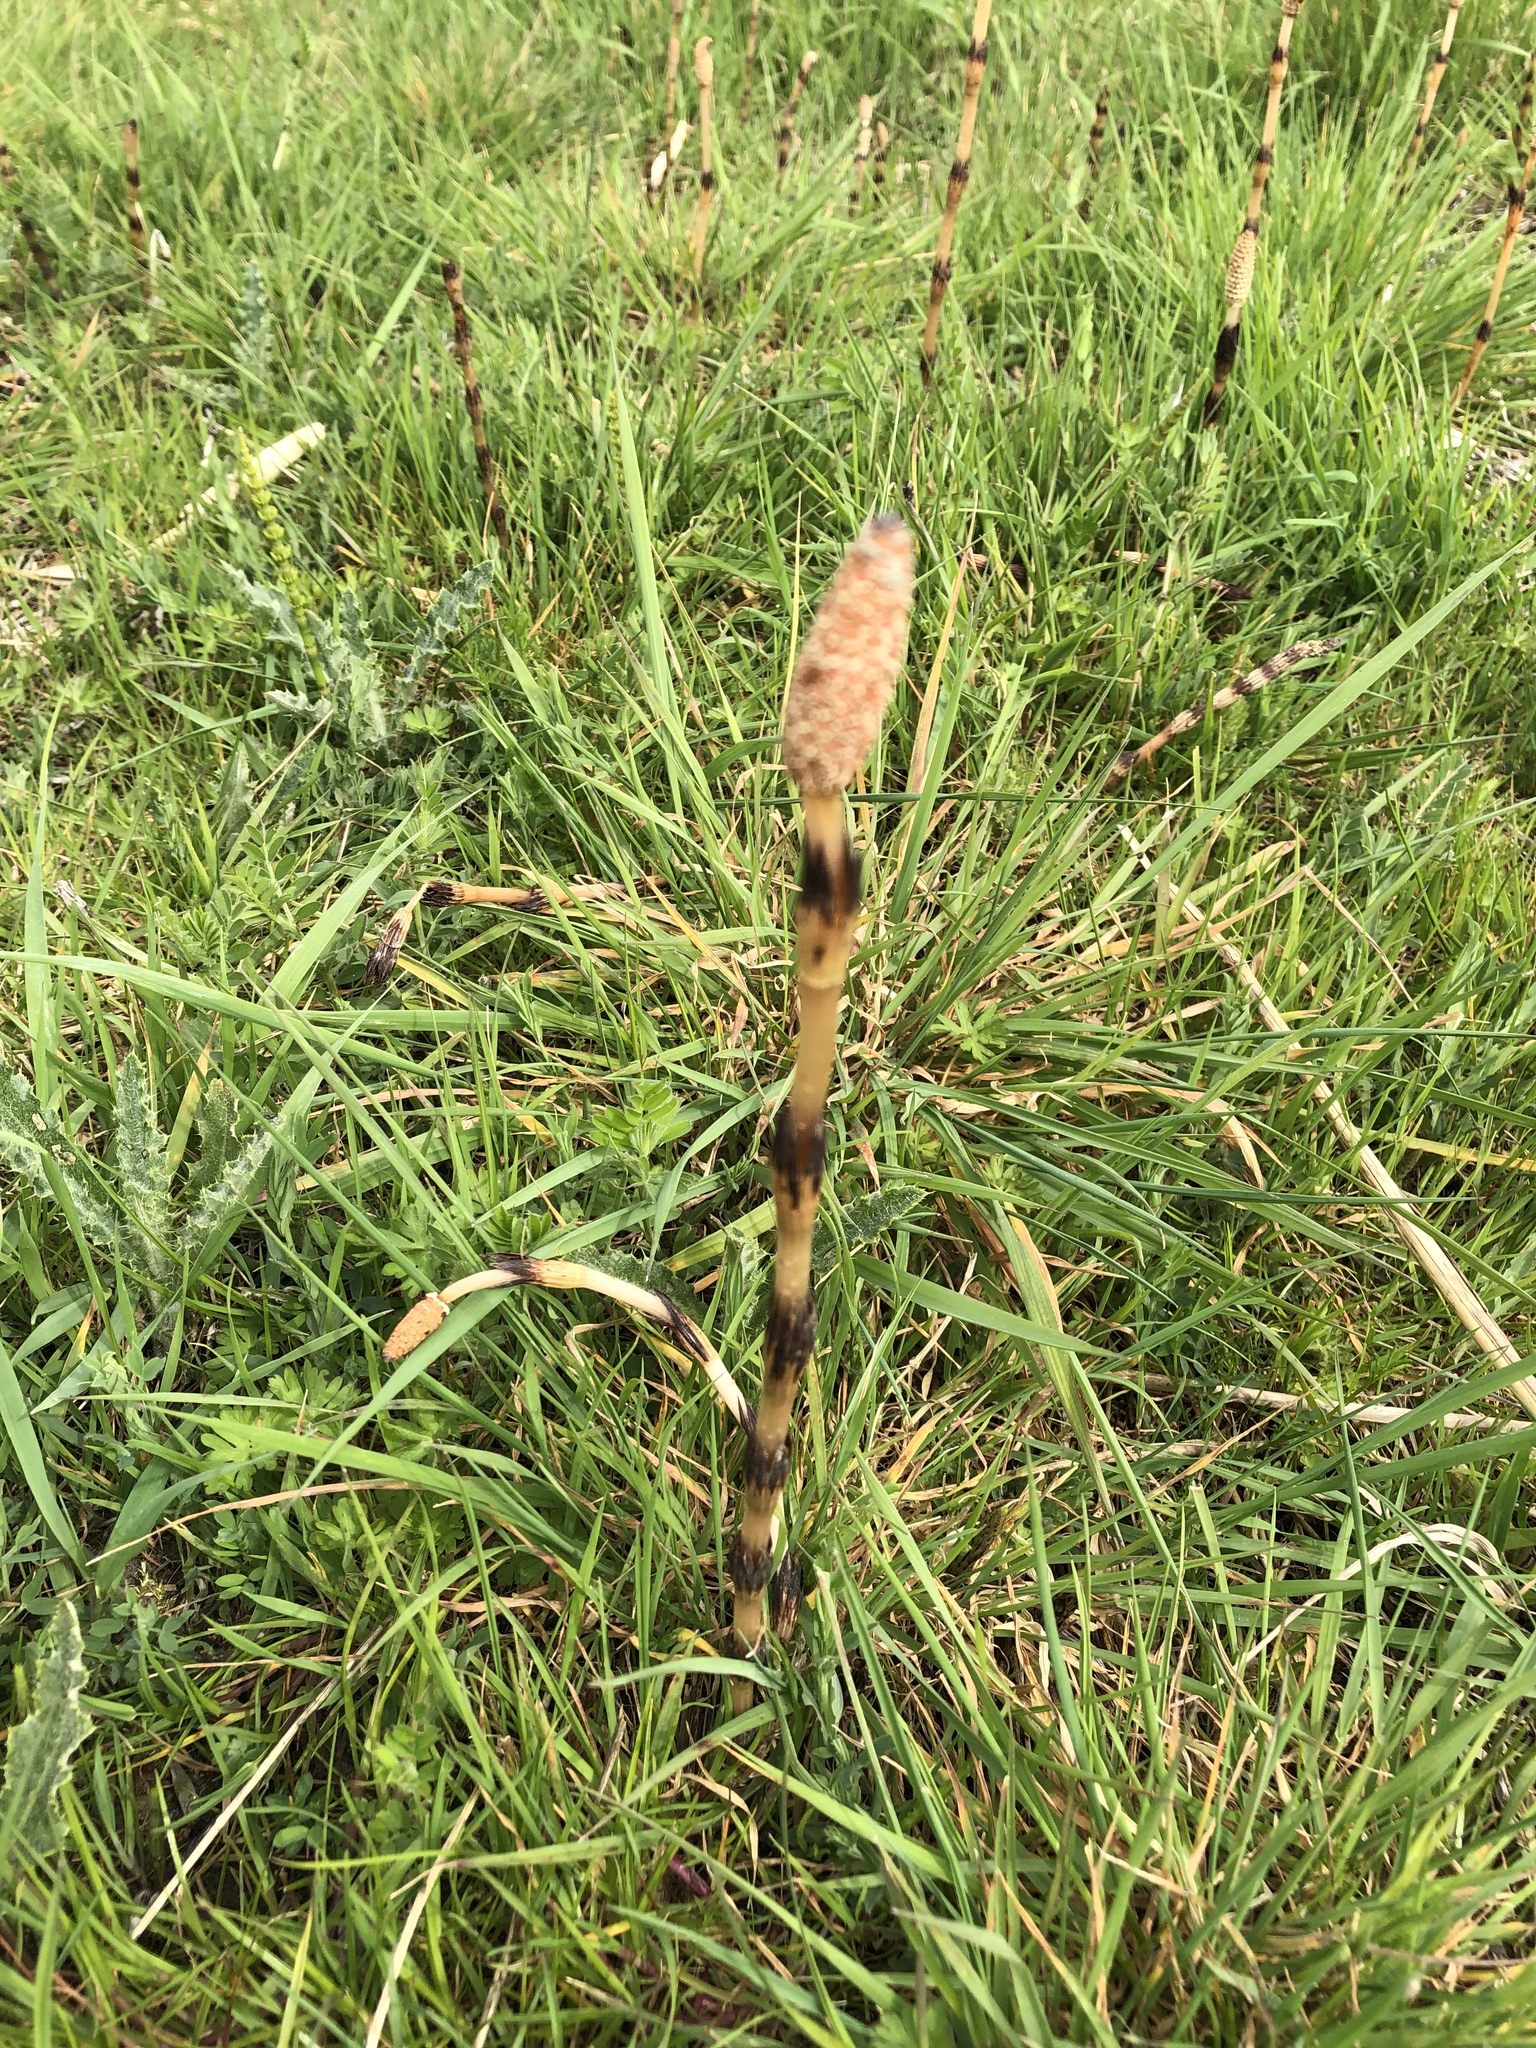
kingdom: Plantae
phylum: Tracheophyta
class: Polypodiopsida
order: Equisetales
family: Equisetaceae
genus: Equisetum
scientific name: Equisetum arvense
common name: Field horsetail
